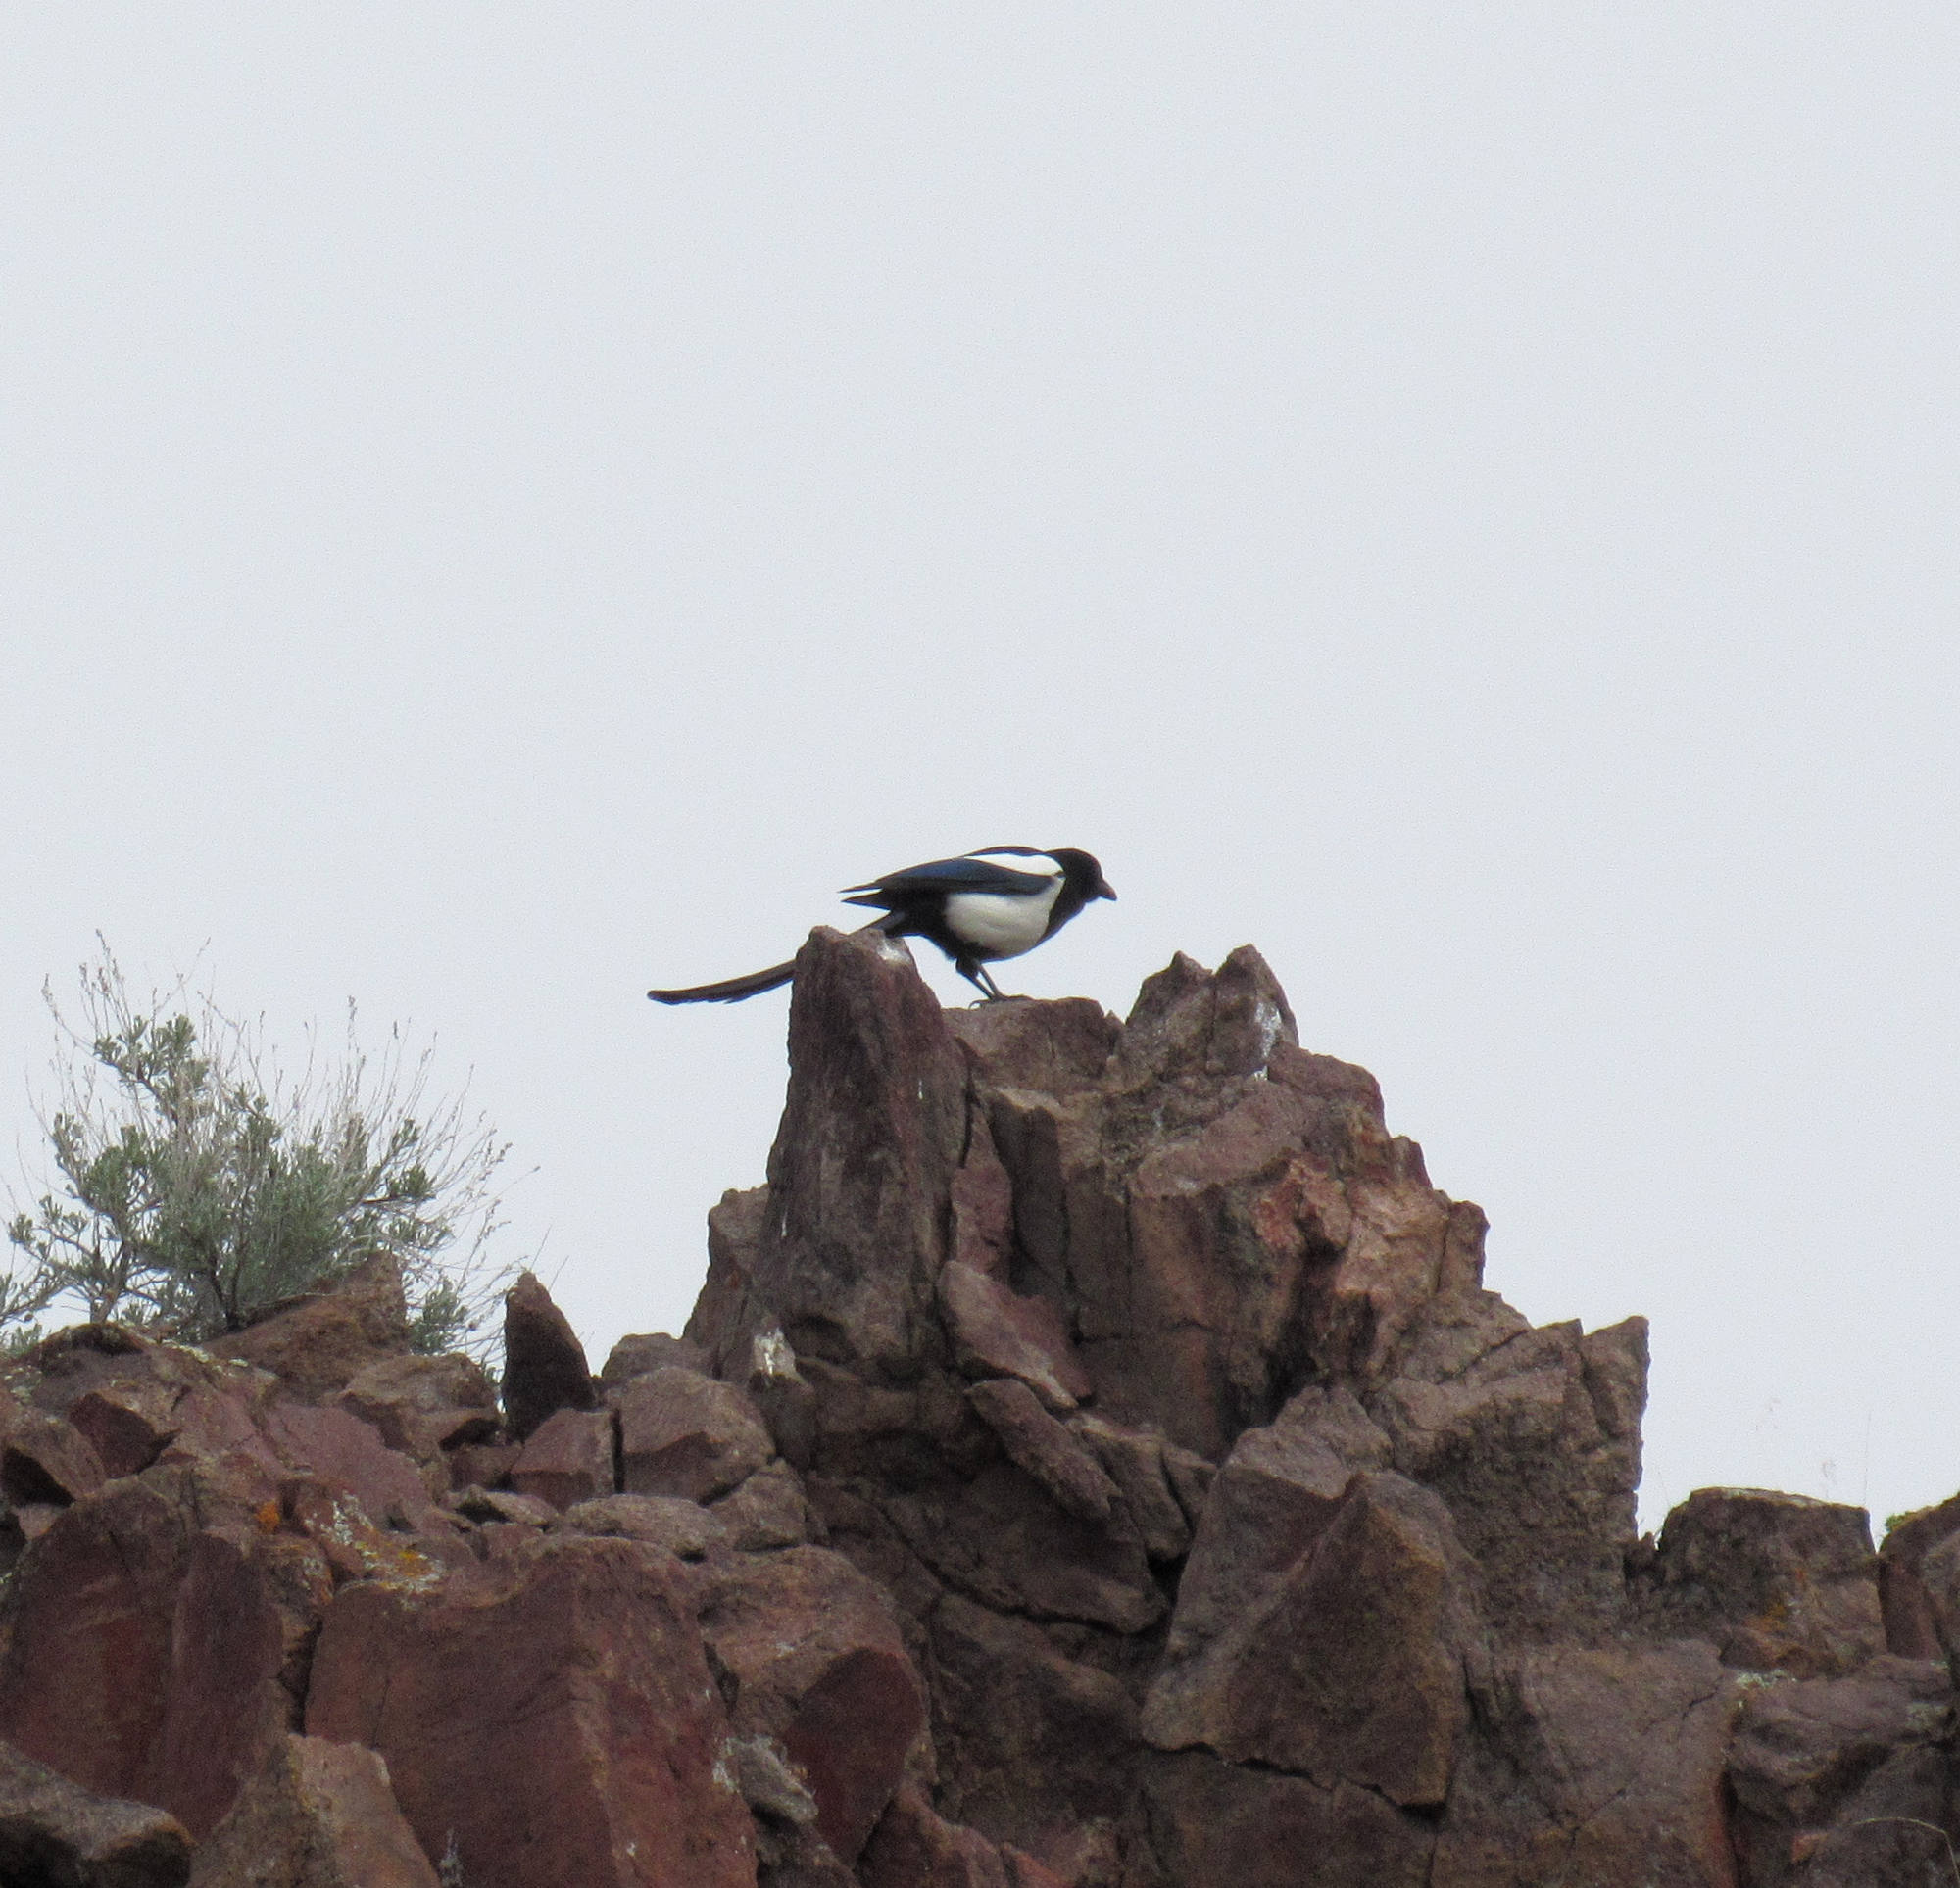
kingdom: Animalia
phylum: Chordata
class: Aves
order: Passeriformes
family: Corvidae
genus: Pica
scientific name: Pica hudsonia
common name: Black-billed magpie
